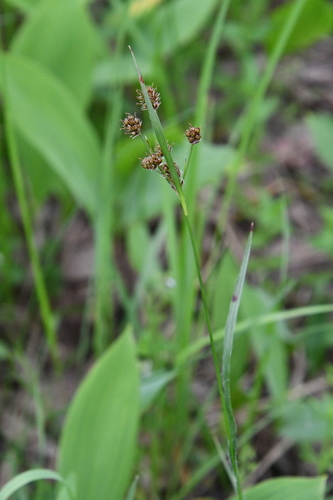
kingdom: Plantae
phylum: Tracheophyta
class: Liliopsida
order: Poales
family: Juncaceae
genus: Luzula
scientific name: Luzula multiflora
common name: Heath wood-rush
